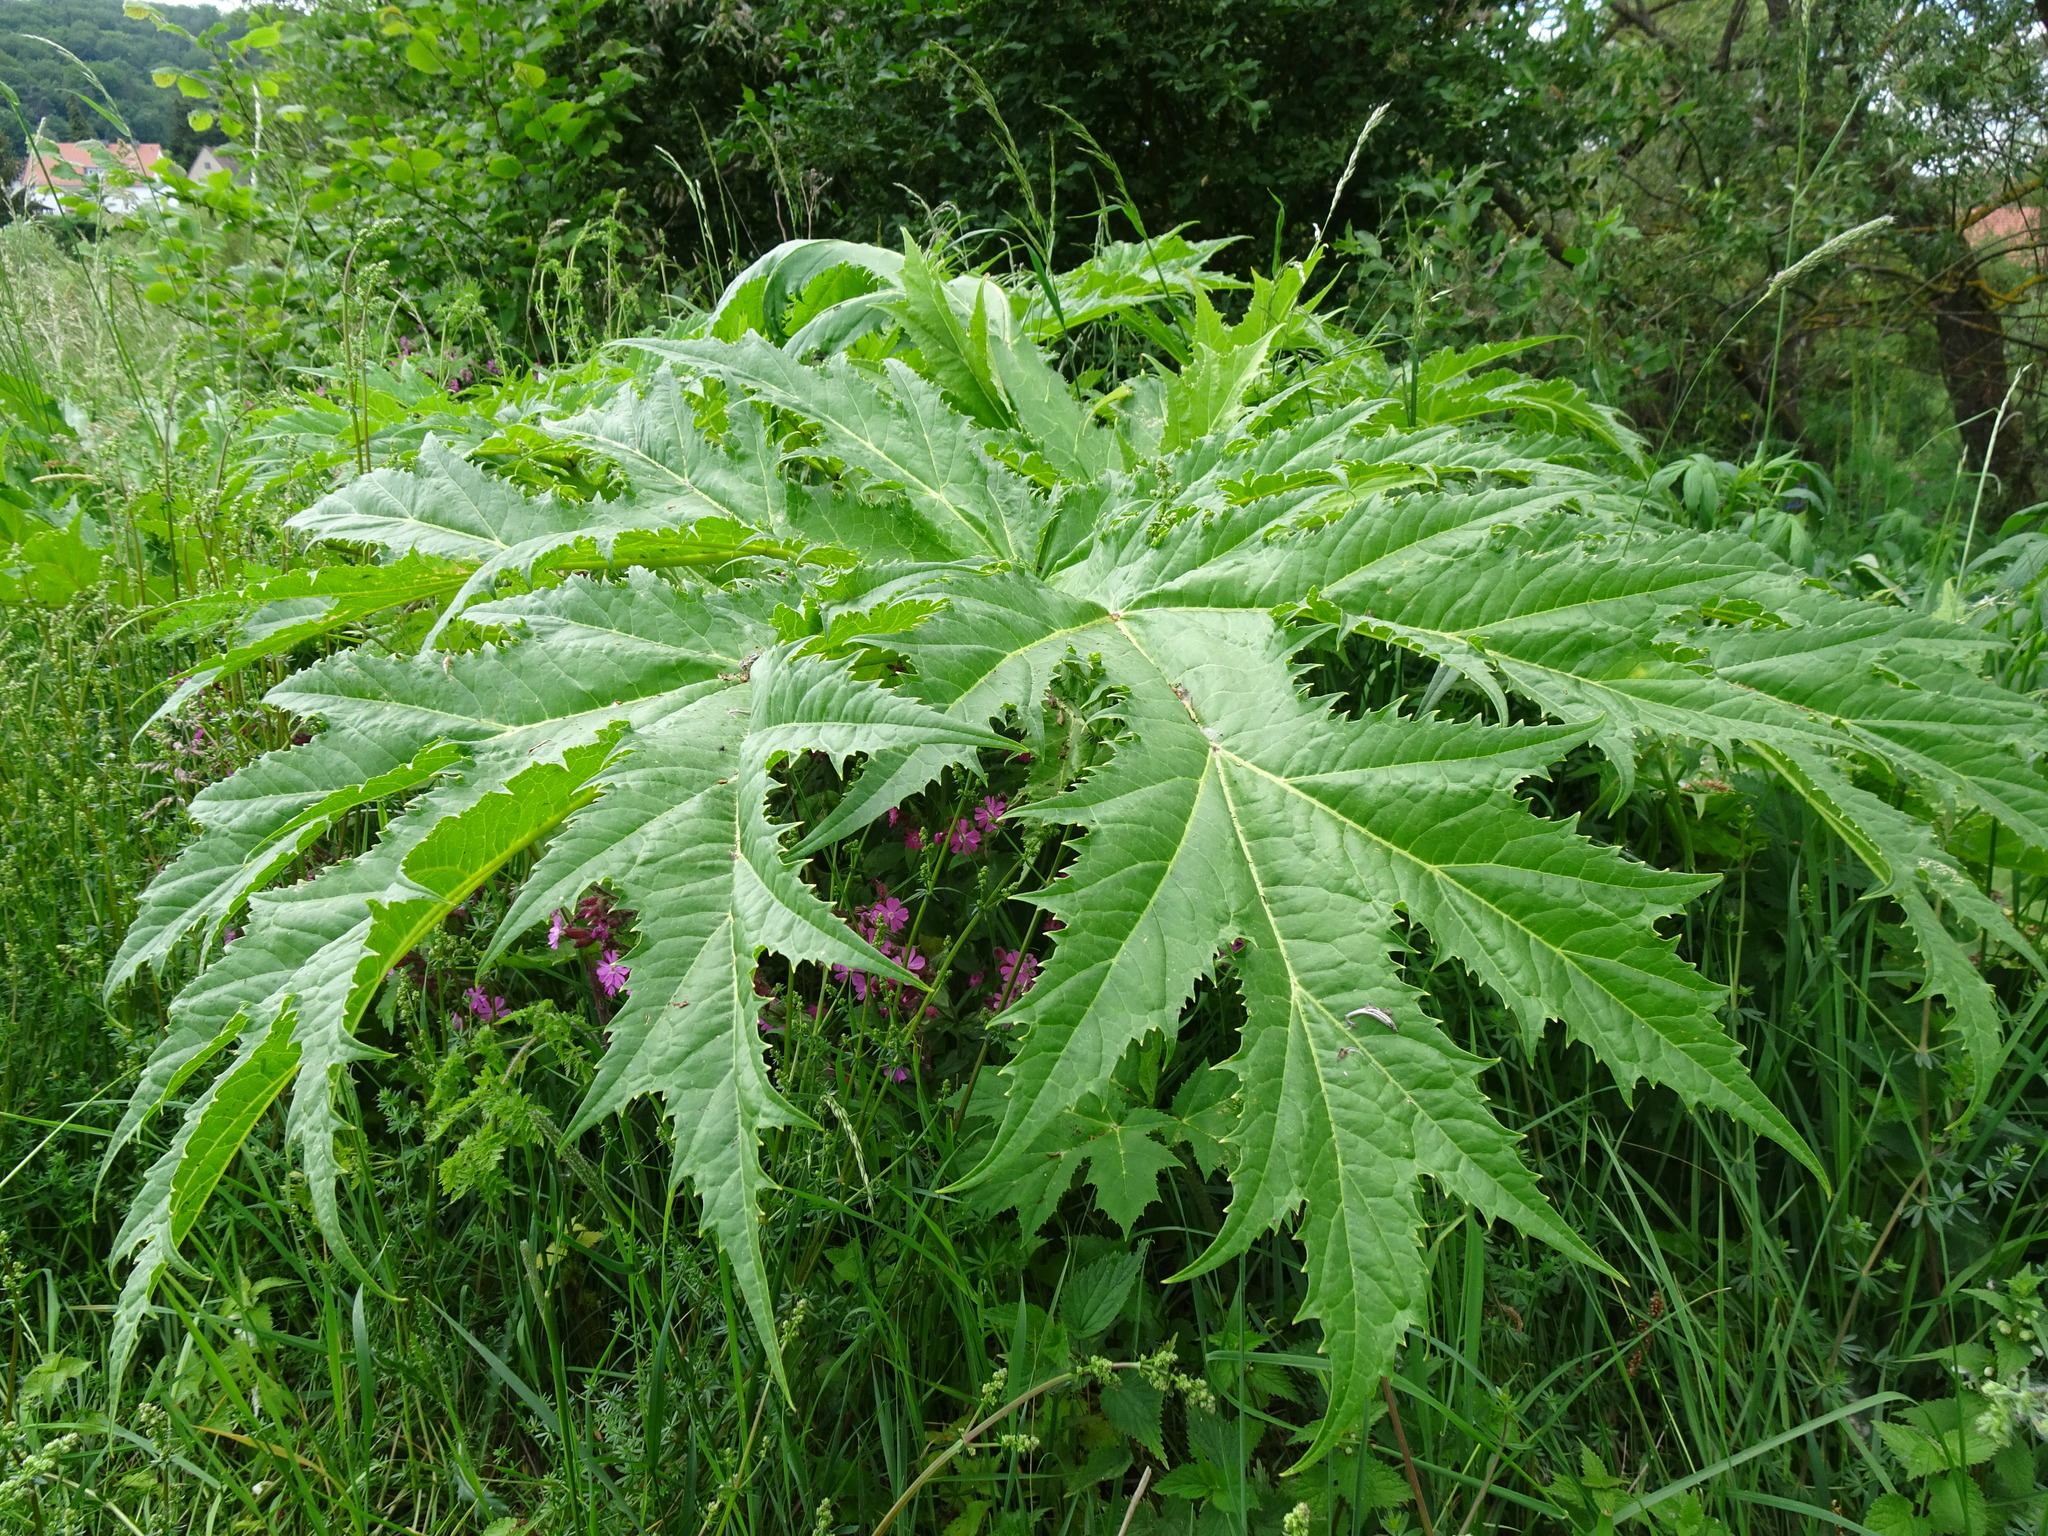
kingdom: Plantae
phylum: Tracheophyta
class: Magnoliopsida
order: Apiales
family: Apiaceae
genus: Heracleum
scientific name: Heracleum mantegazzianum
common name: Giant hogweed
